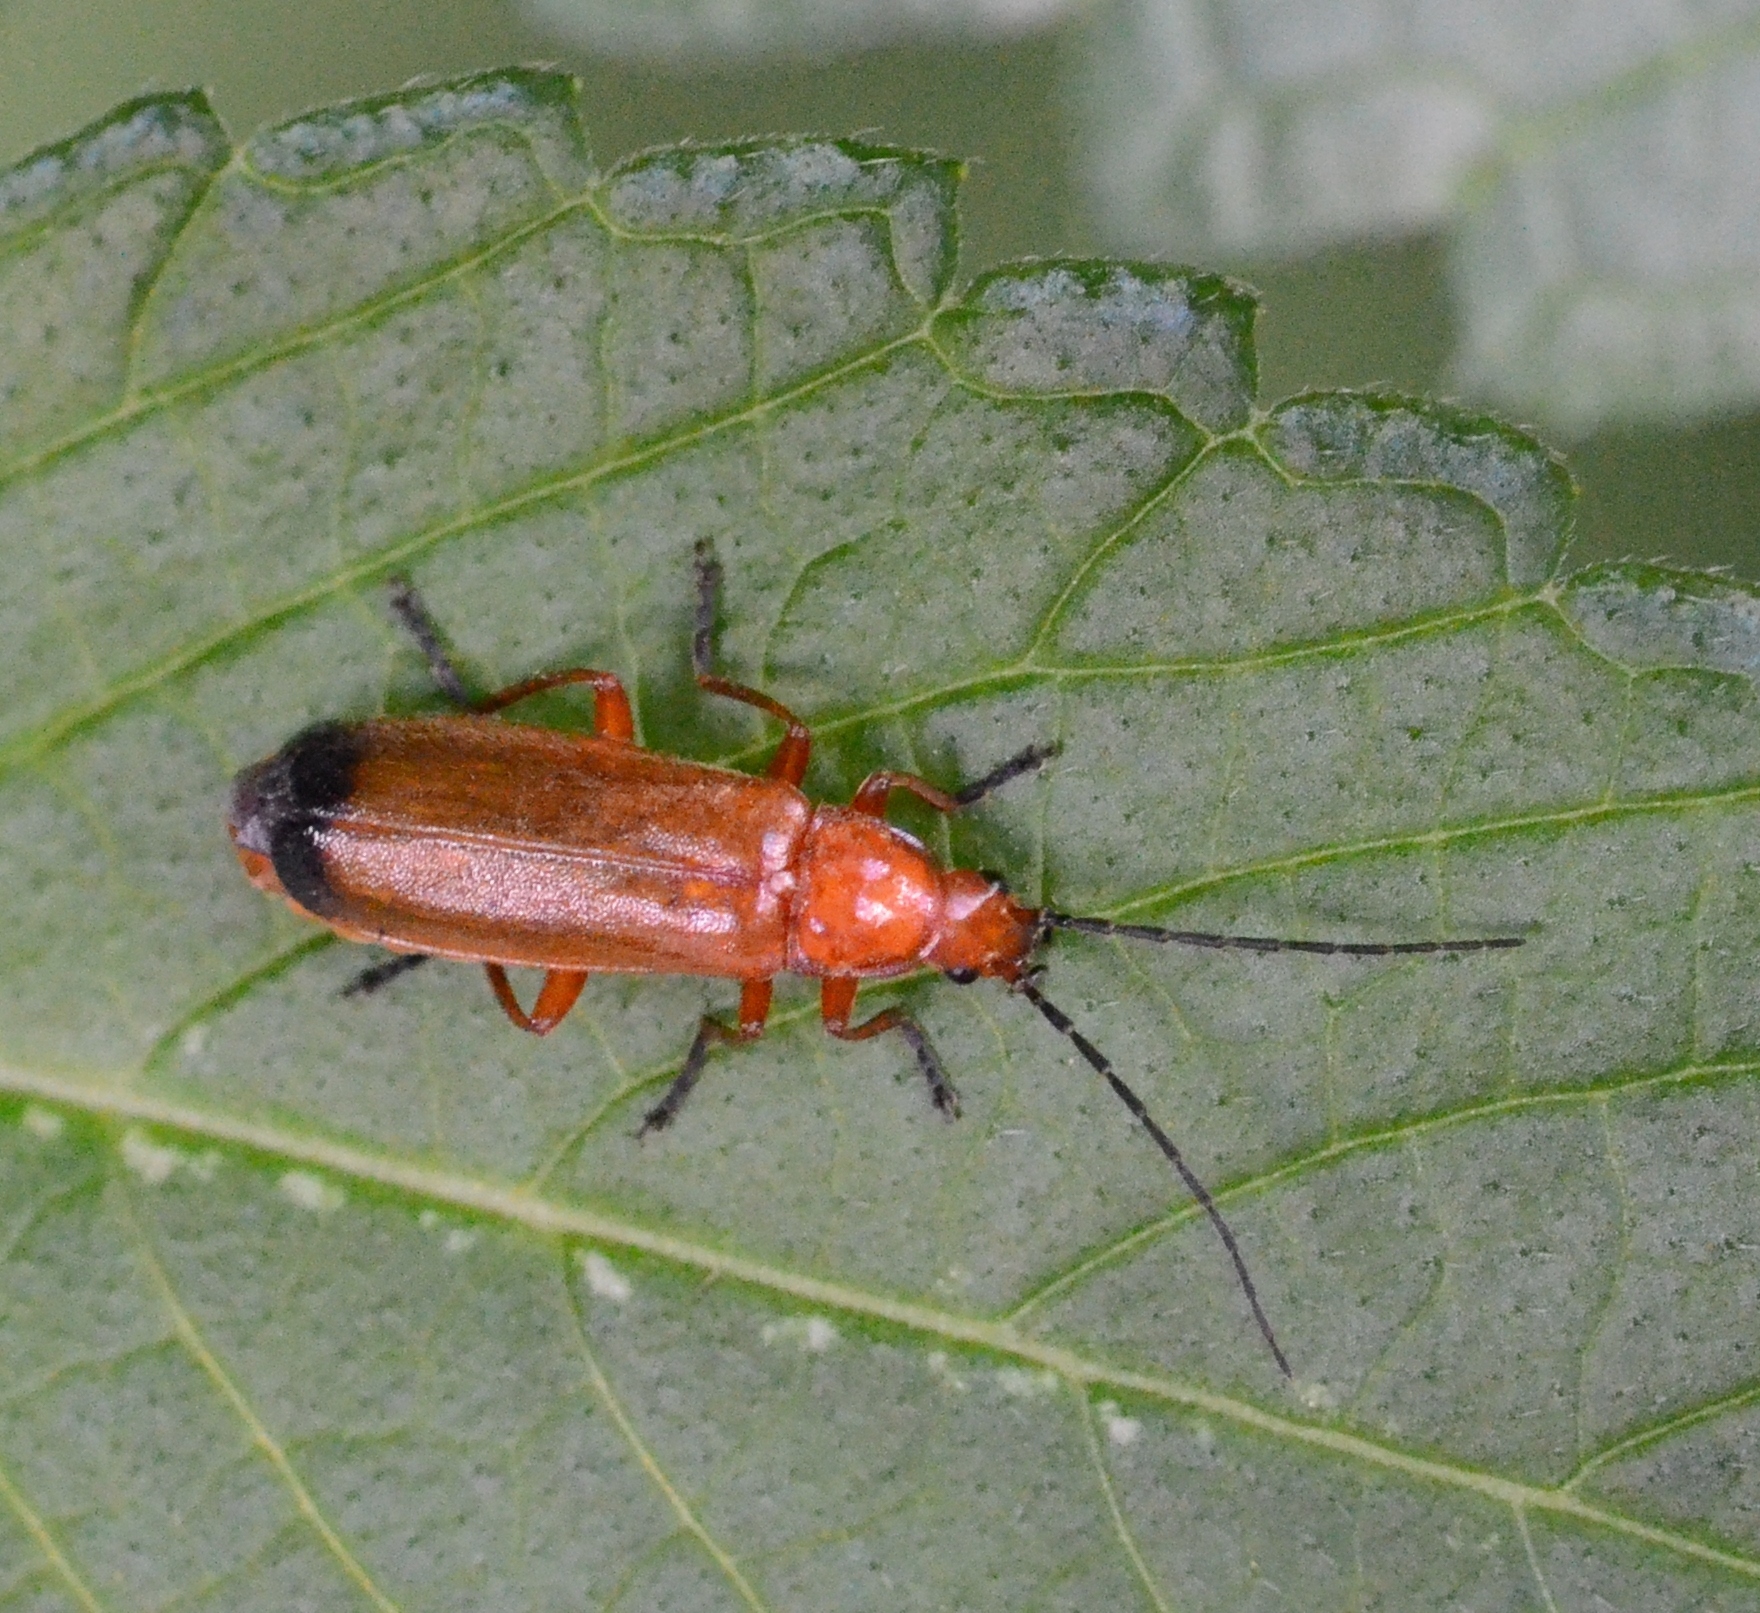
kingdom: Animalia
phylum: Arthropoda
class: Insecta
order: Coleoptera
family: Cantharidae
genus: Rhagonycha
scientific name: Rhagonycha fulva
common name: Common red soldier beetle
